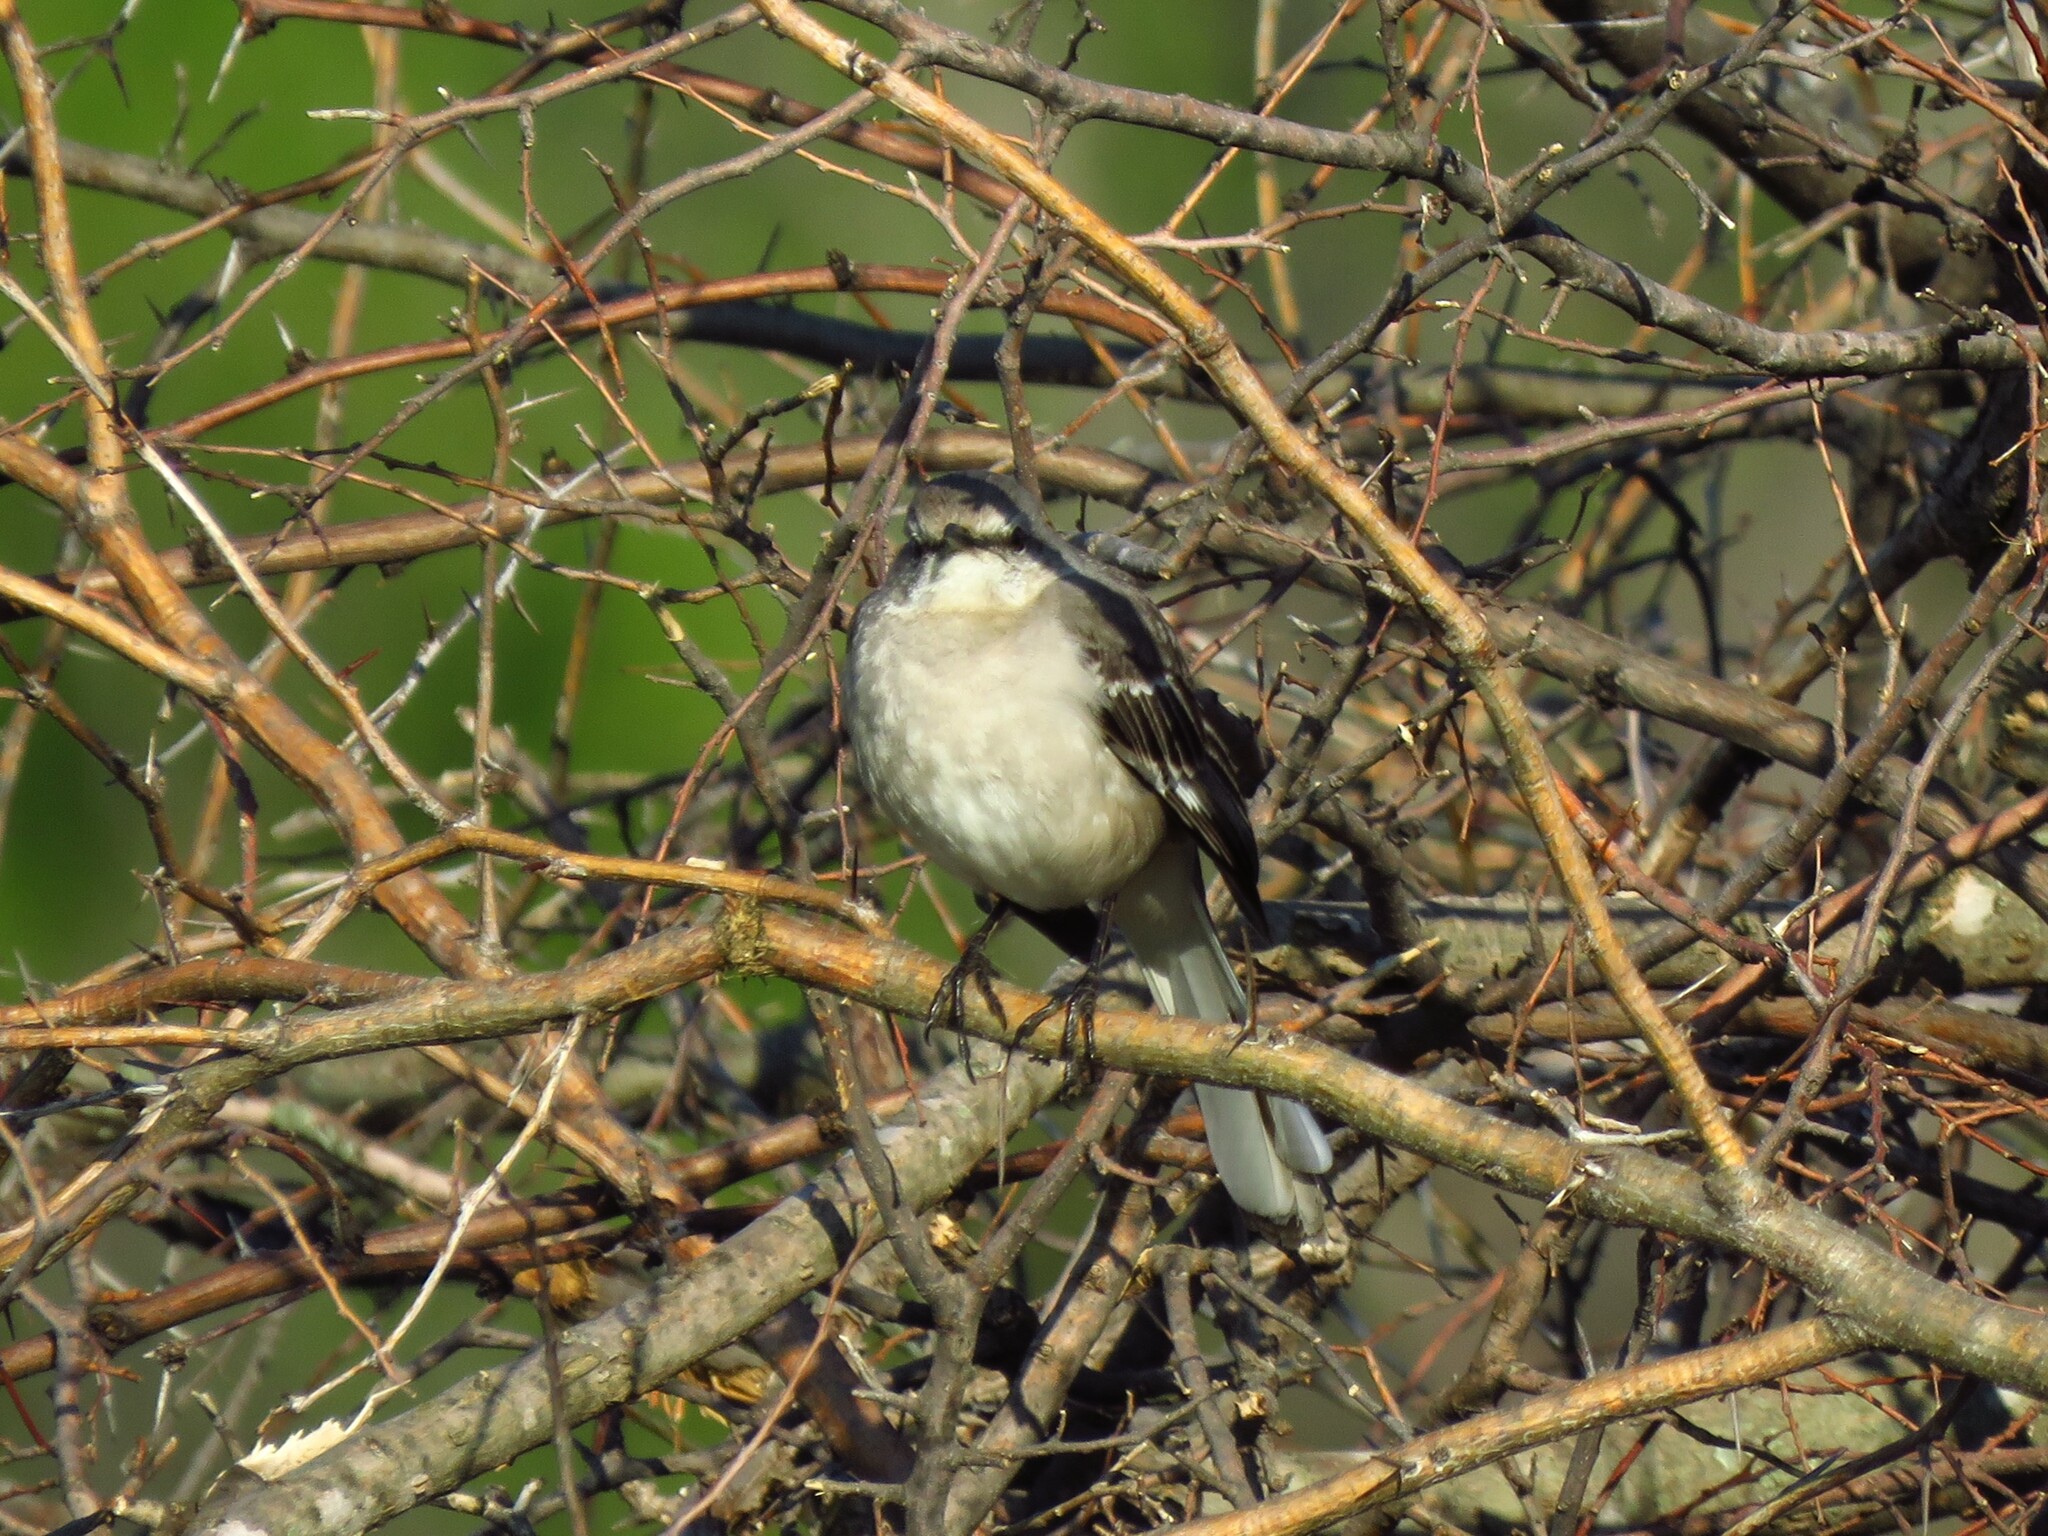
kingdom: Animalia
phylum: Chordata
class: Aves
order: Passeriformes
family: Mimidae
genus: Mimus
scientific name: Mimus polyglottos
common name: Northern mockingbird
